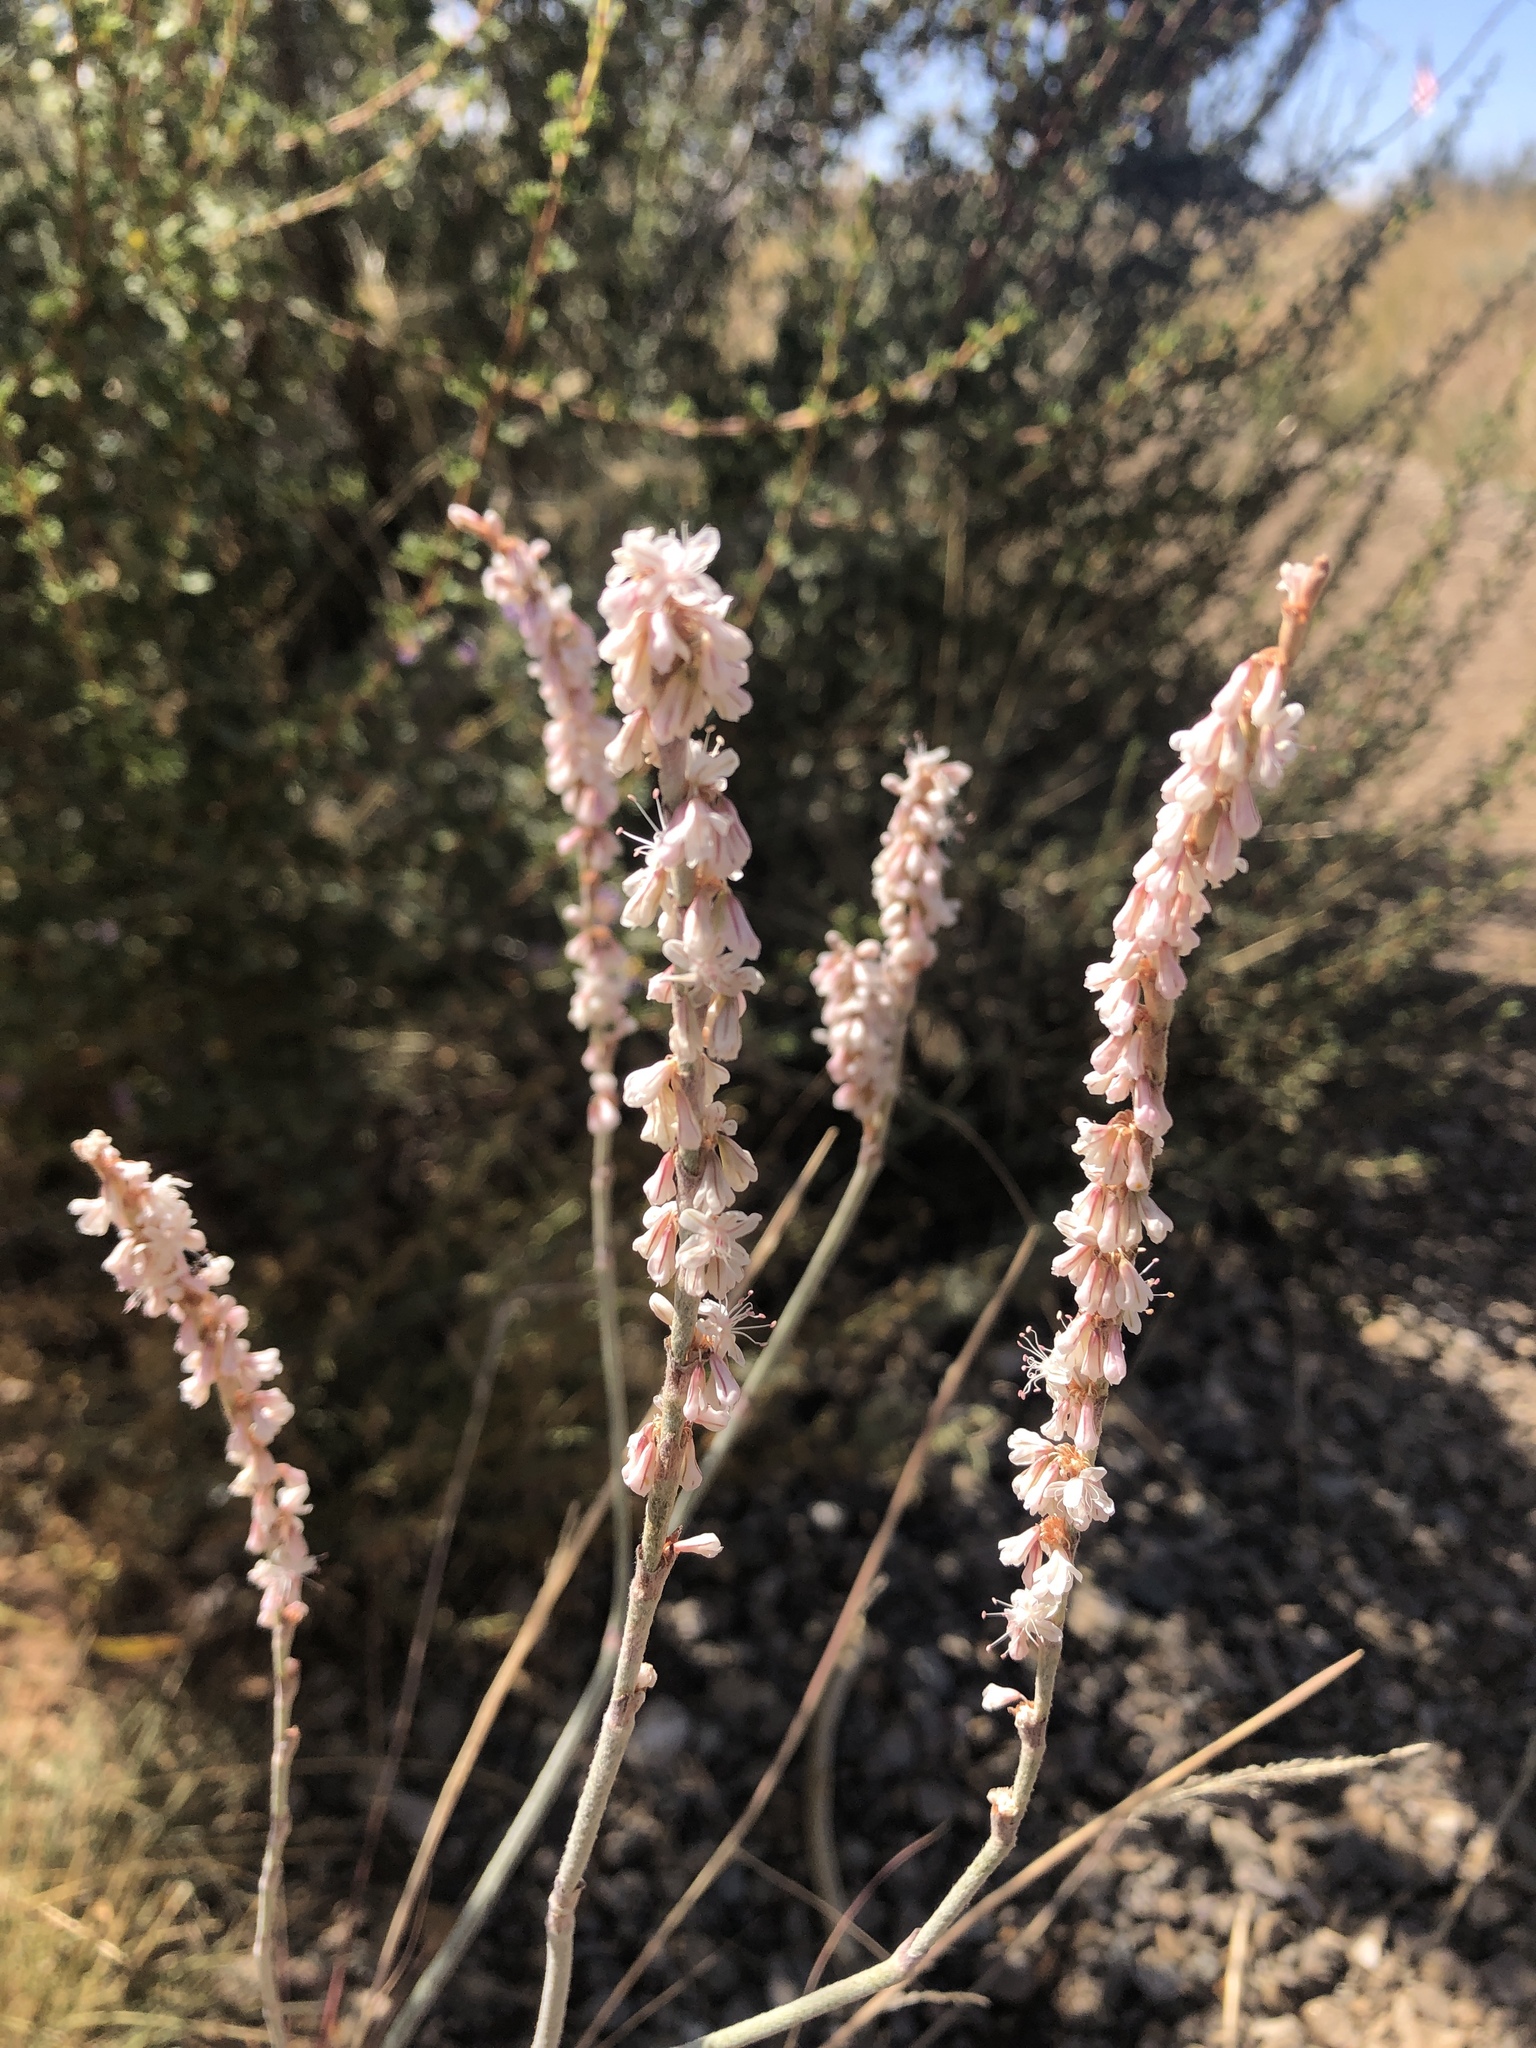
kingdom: Plantae
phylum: Tracheophyta
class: Magnoliopsida
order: Caryophyllales
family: Polygonaceae
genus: Eriogonum
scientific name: Eriogonum racemosum
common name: Redroot wild buckwheat
